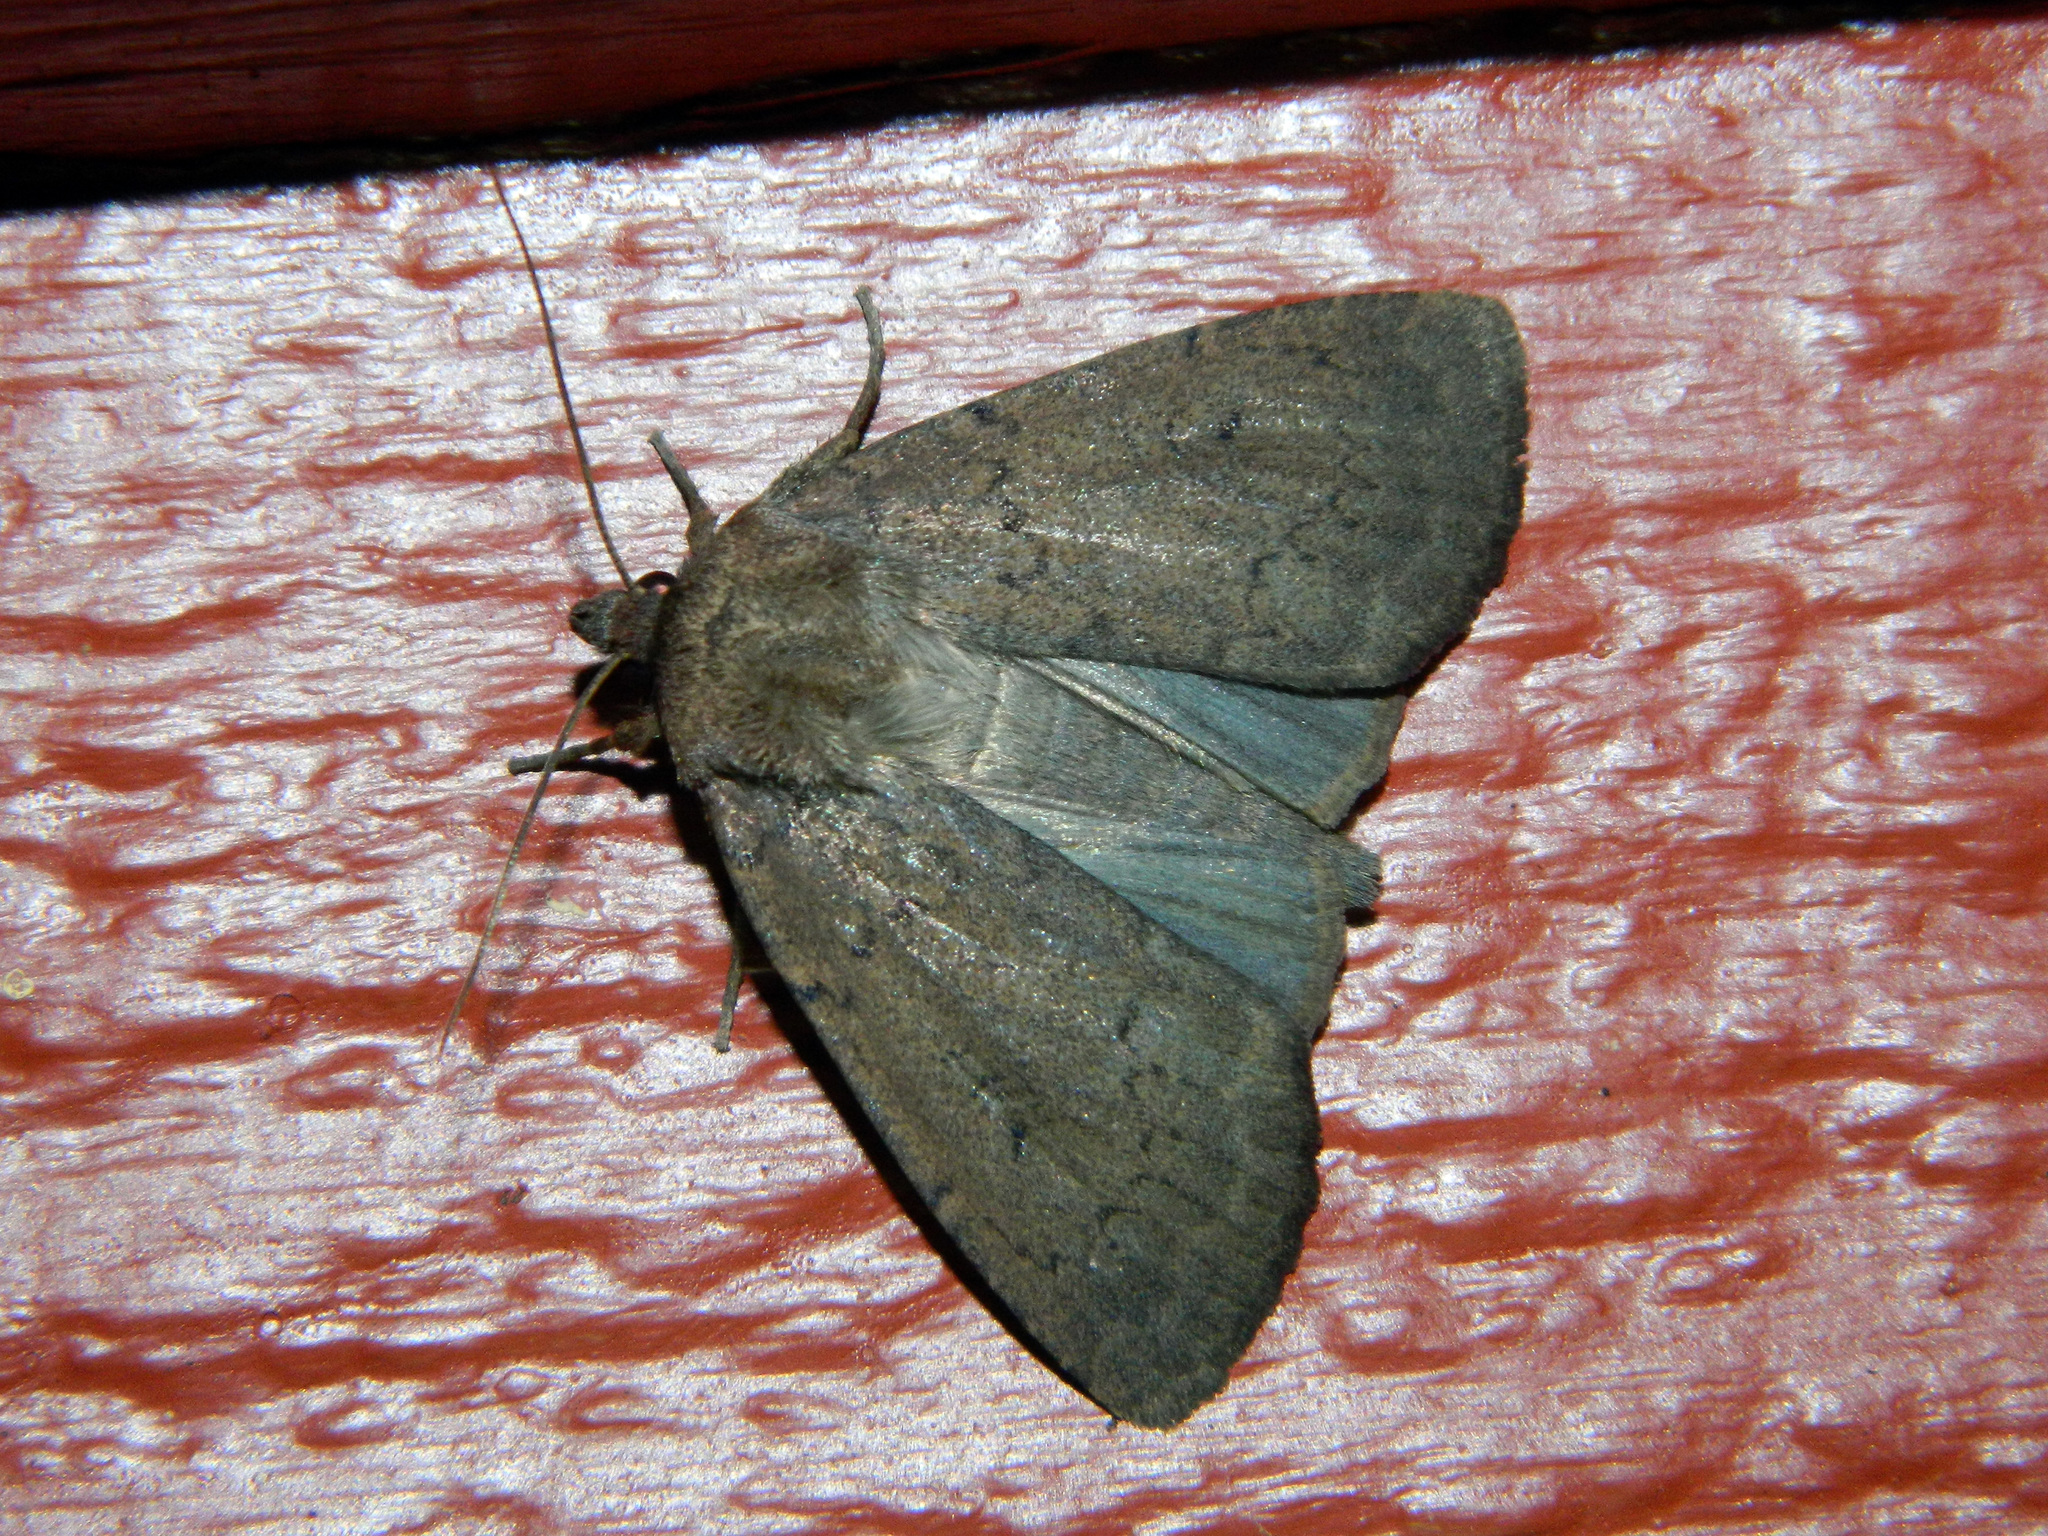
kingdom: Animalia
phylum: Arthropoda
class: Insecta
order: Lepidoptera
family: Noctuidae
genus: Graphiphora
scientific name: Graphiphora augur
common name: Double dart
